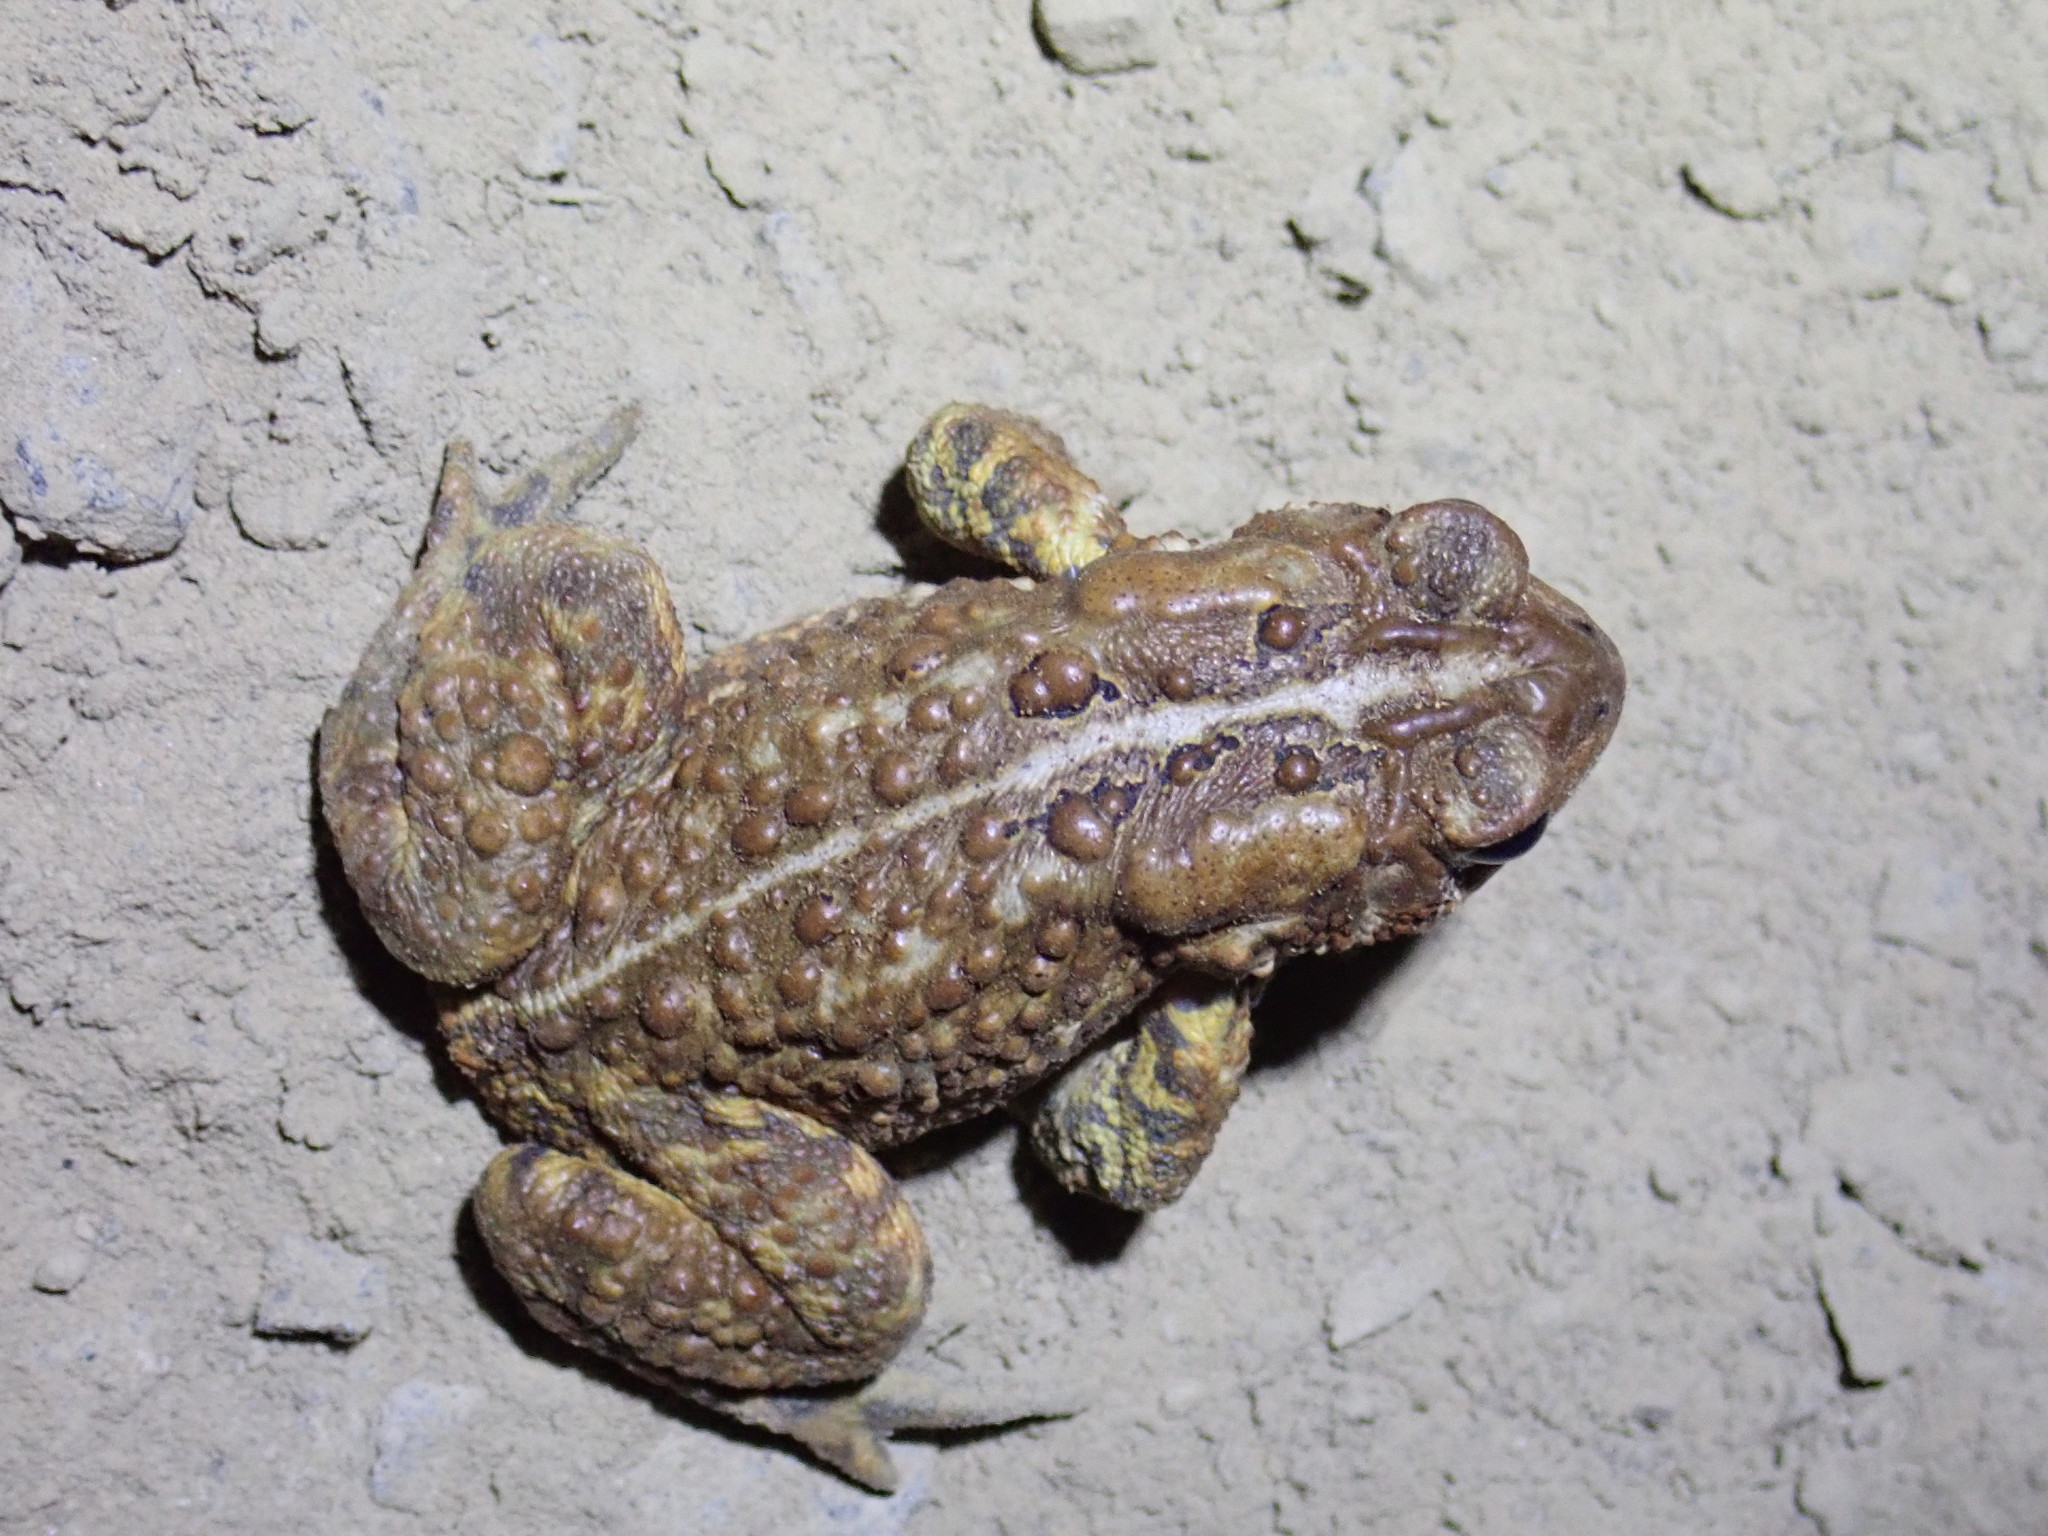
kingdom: Animalia
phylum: Chordata
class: Amphibia
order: Anura
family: Bufonidae
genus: Anaxyrus
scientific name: Anaxyrus americanus
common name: American toad
